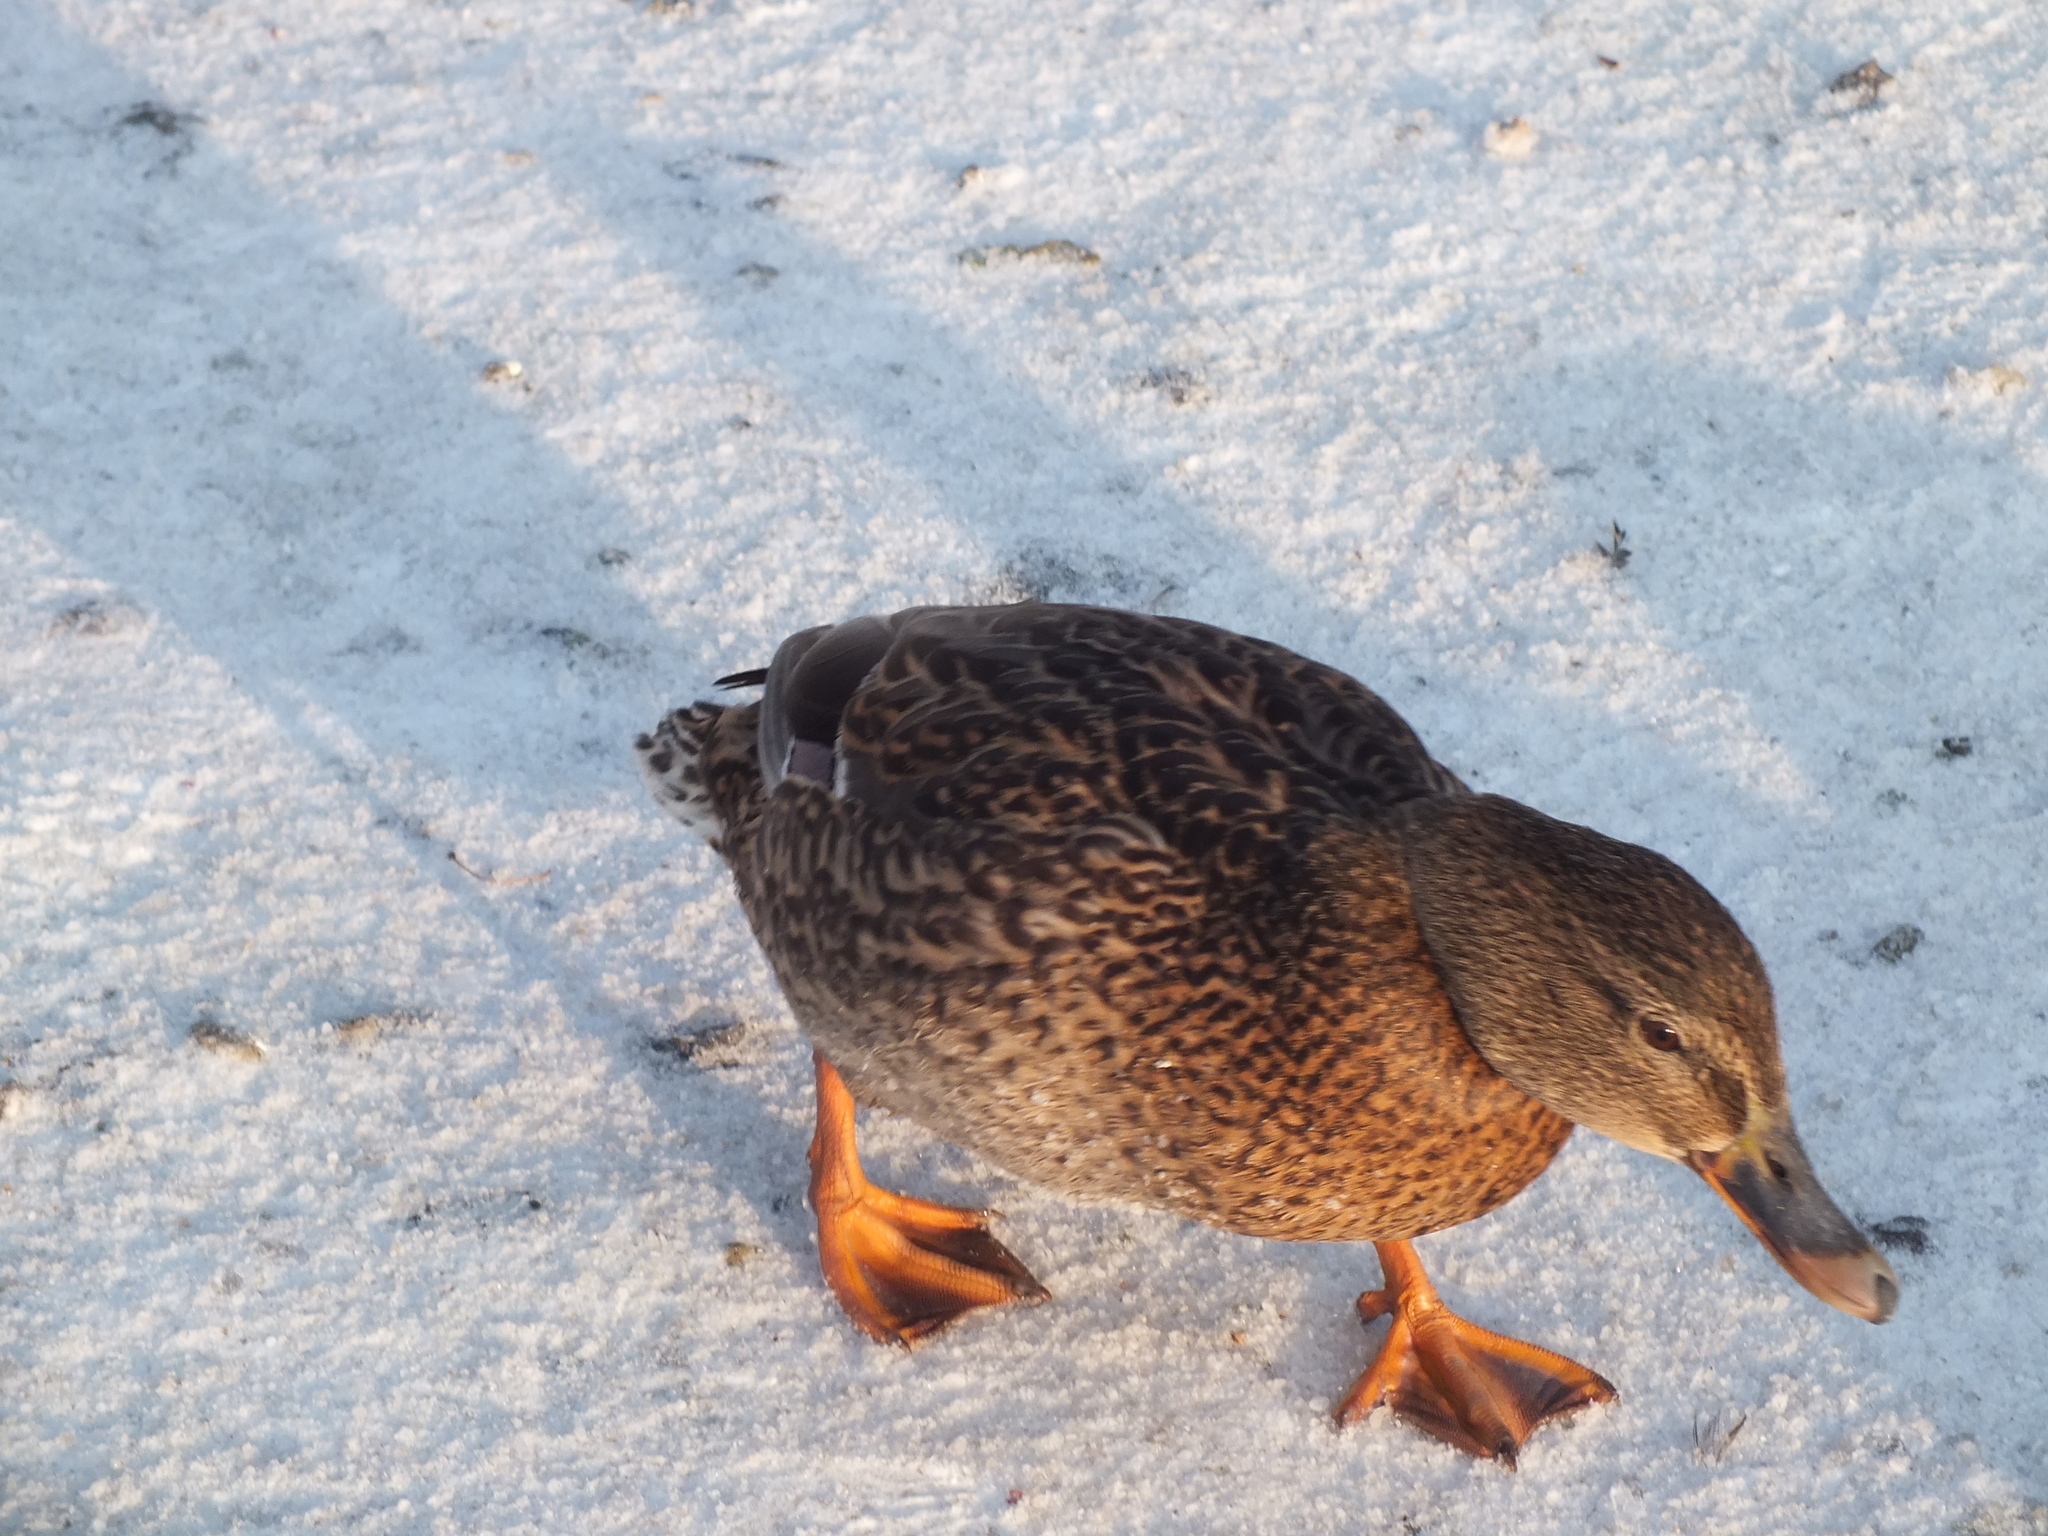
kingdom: Animalia
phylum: Chordata
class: Aves
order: Anseriformes
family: Anatidae
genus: Anas
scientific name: Anas platyrhynchos
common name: Mallard
